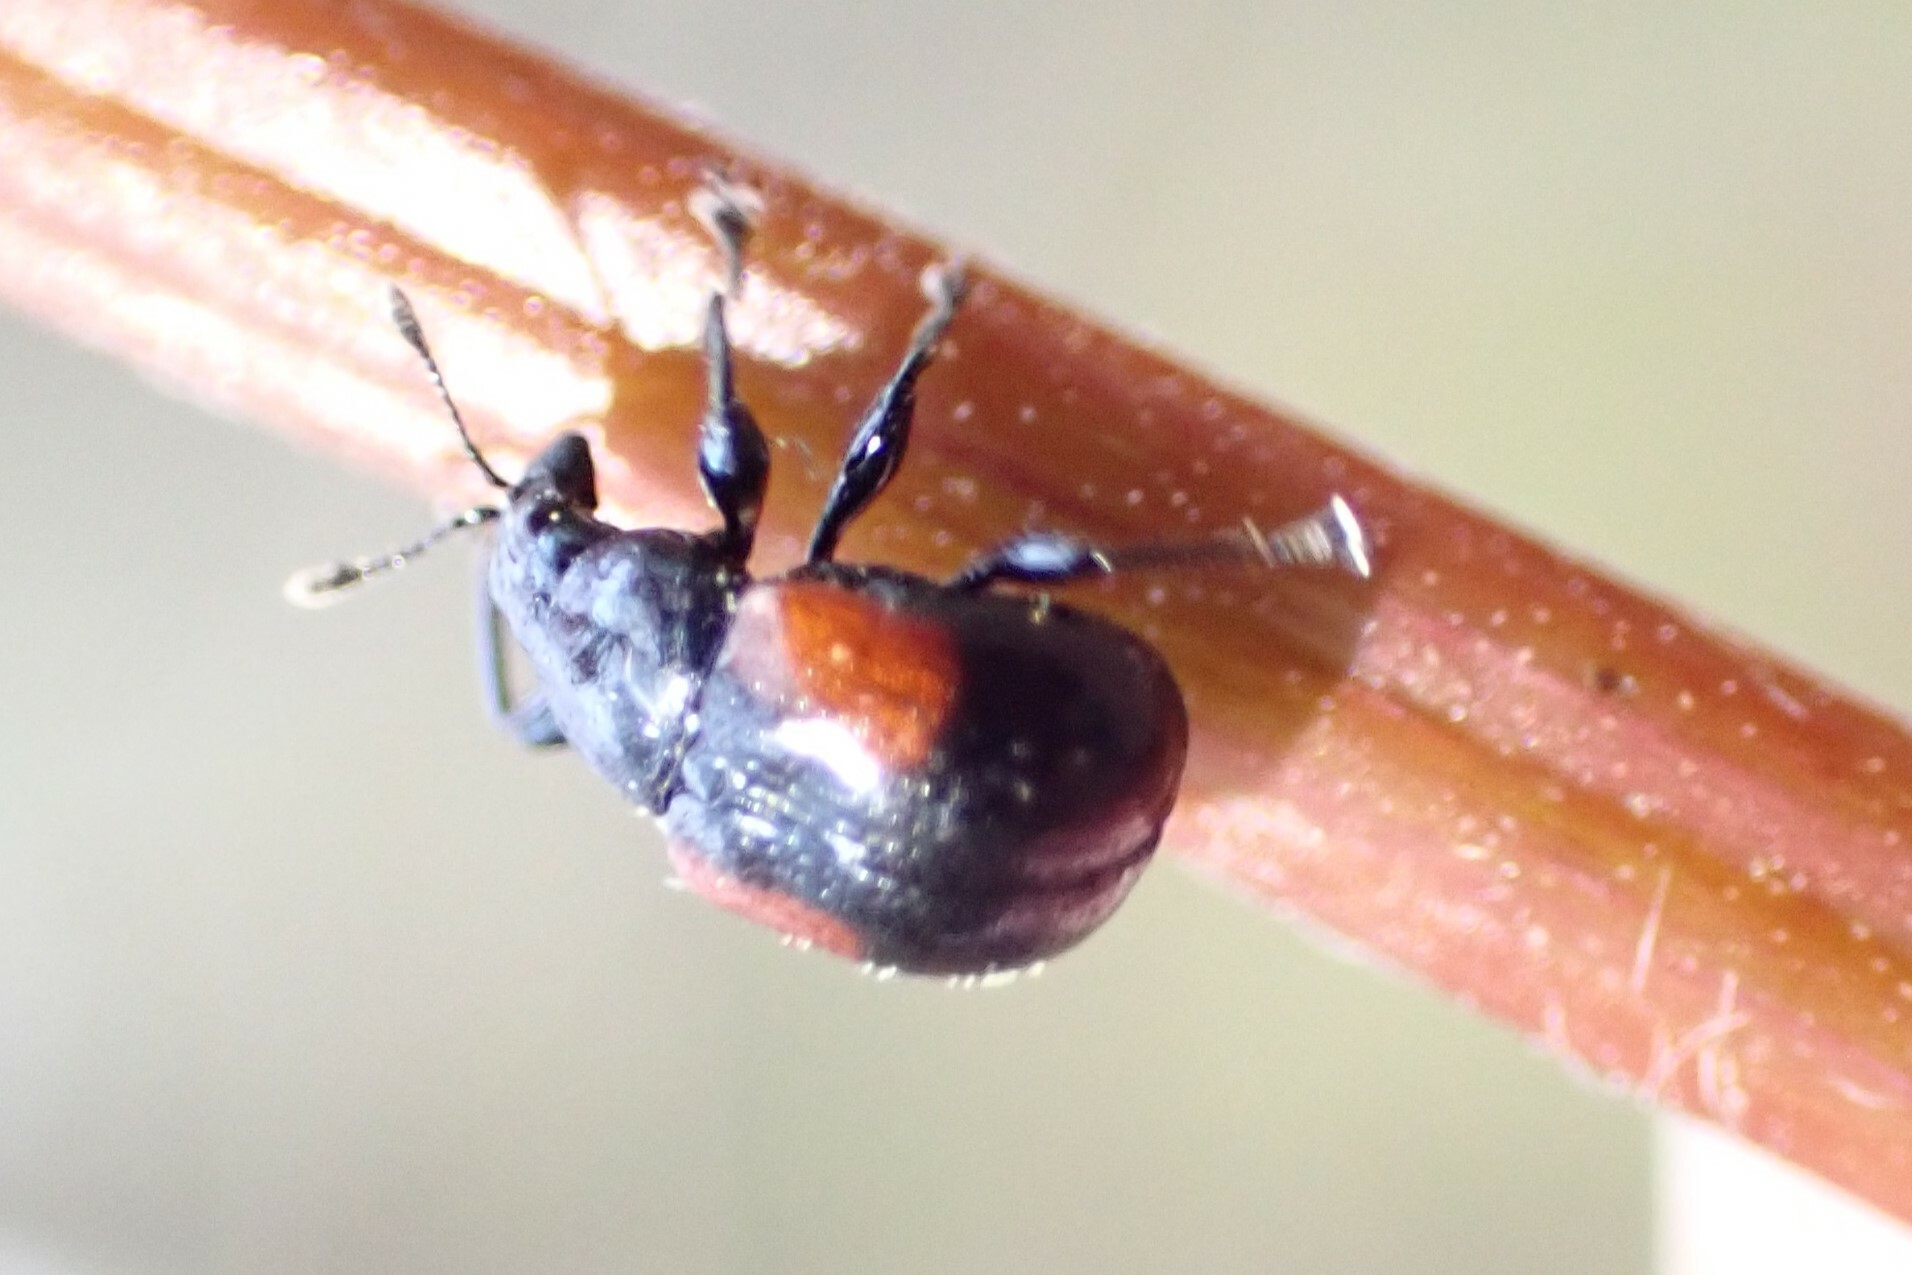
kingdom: Animalia
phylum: Arthropoda
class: Insecta
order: Coleoptera
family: Attelabidae
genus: Attelabus
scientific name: Attelabus bipustulatus
